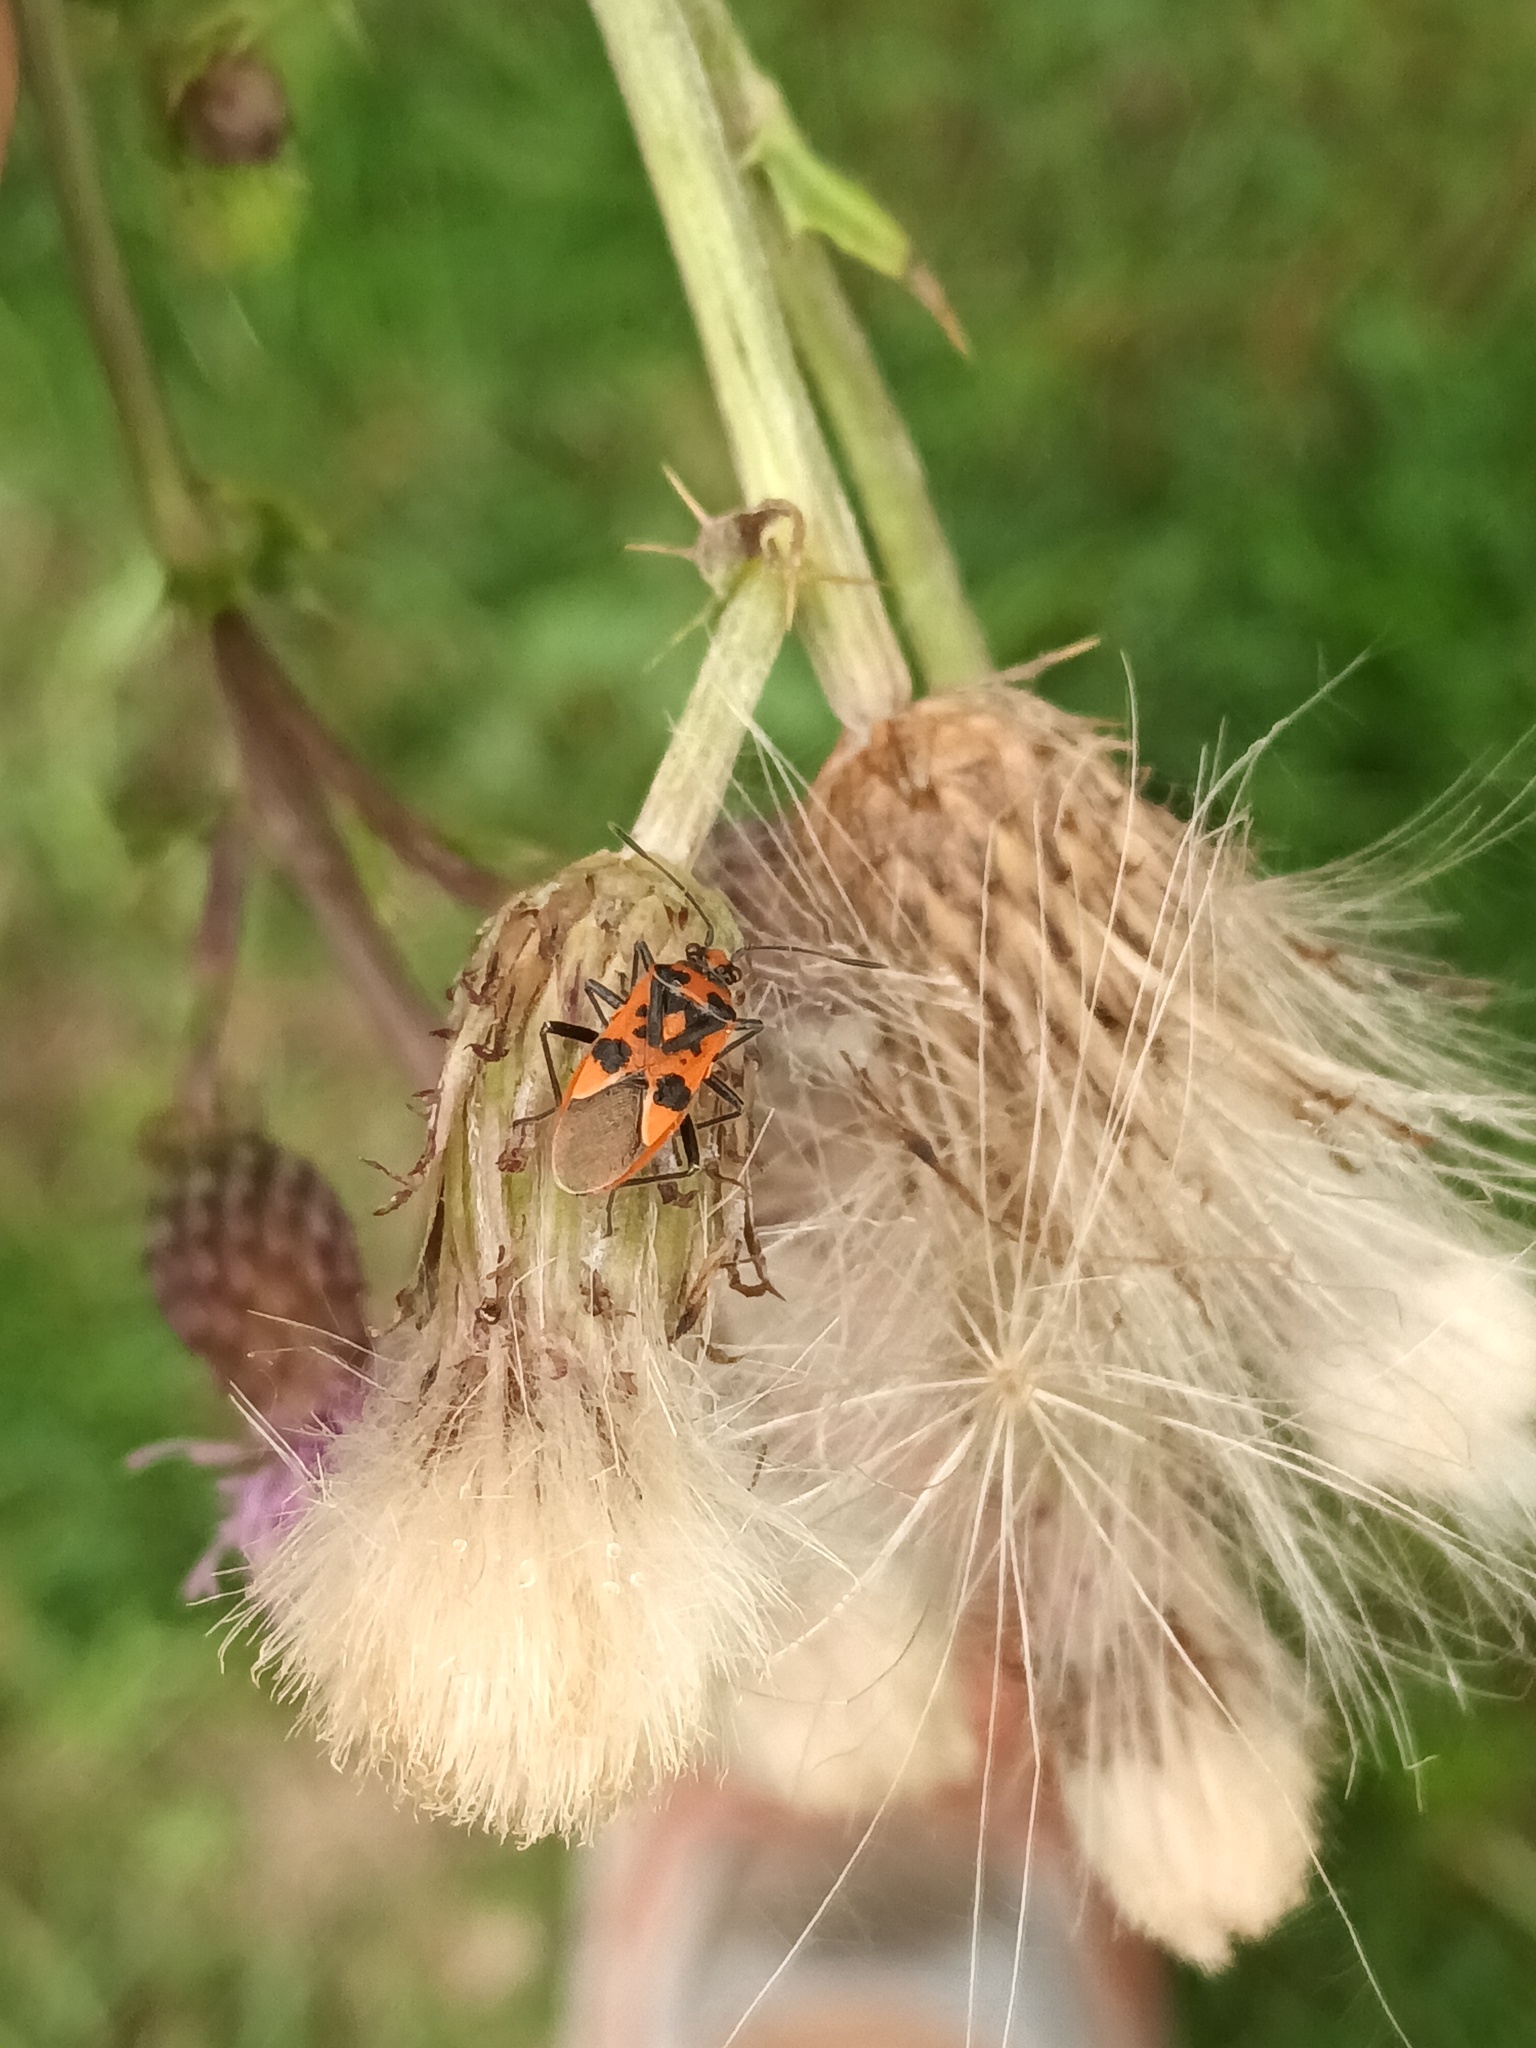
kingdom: Animalia
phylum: Arthropoda
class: Insecta
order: Hemiptera
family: Rhopalidae
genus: Corizus
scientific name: Corizus hyoscyami
